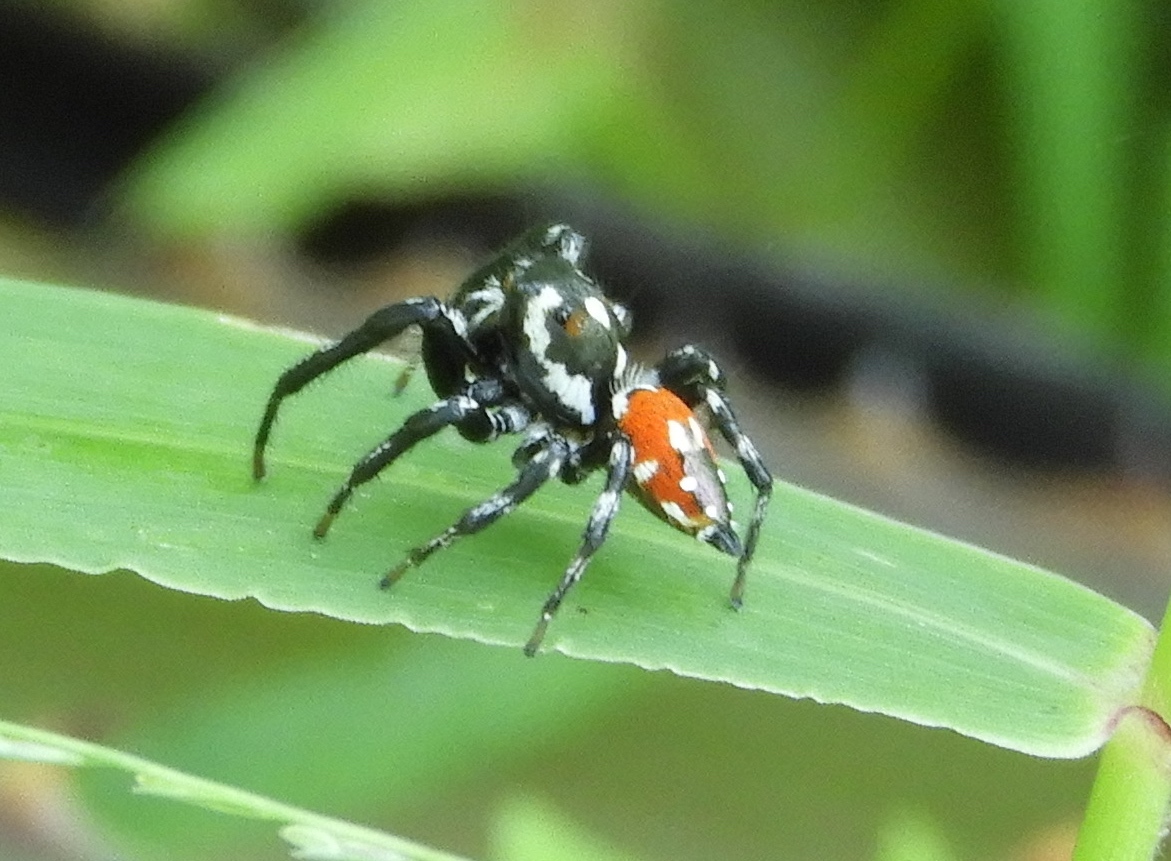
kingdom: Animalia
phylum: Arthropoda
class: Arachnida
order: Araneae
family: Salticidae
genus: Corythalia
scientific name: Corythalia
